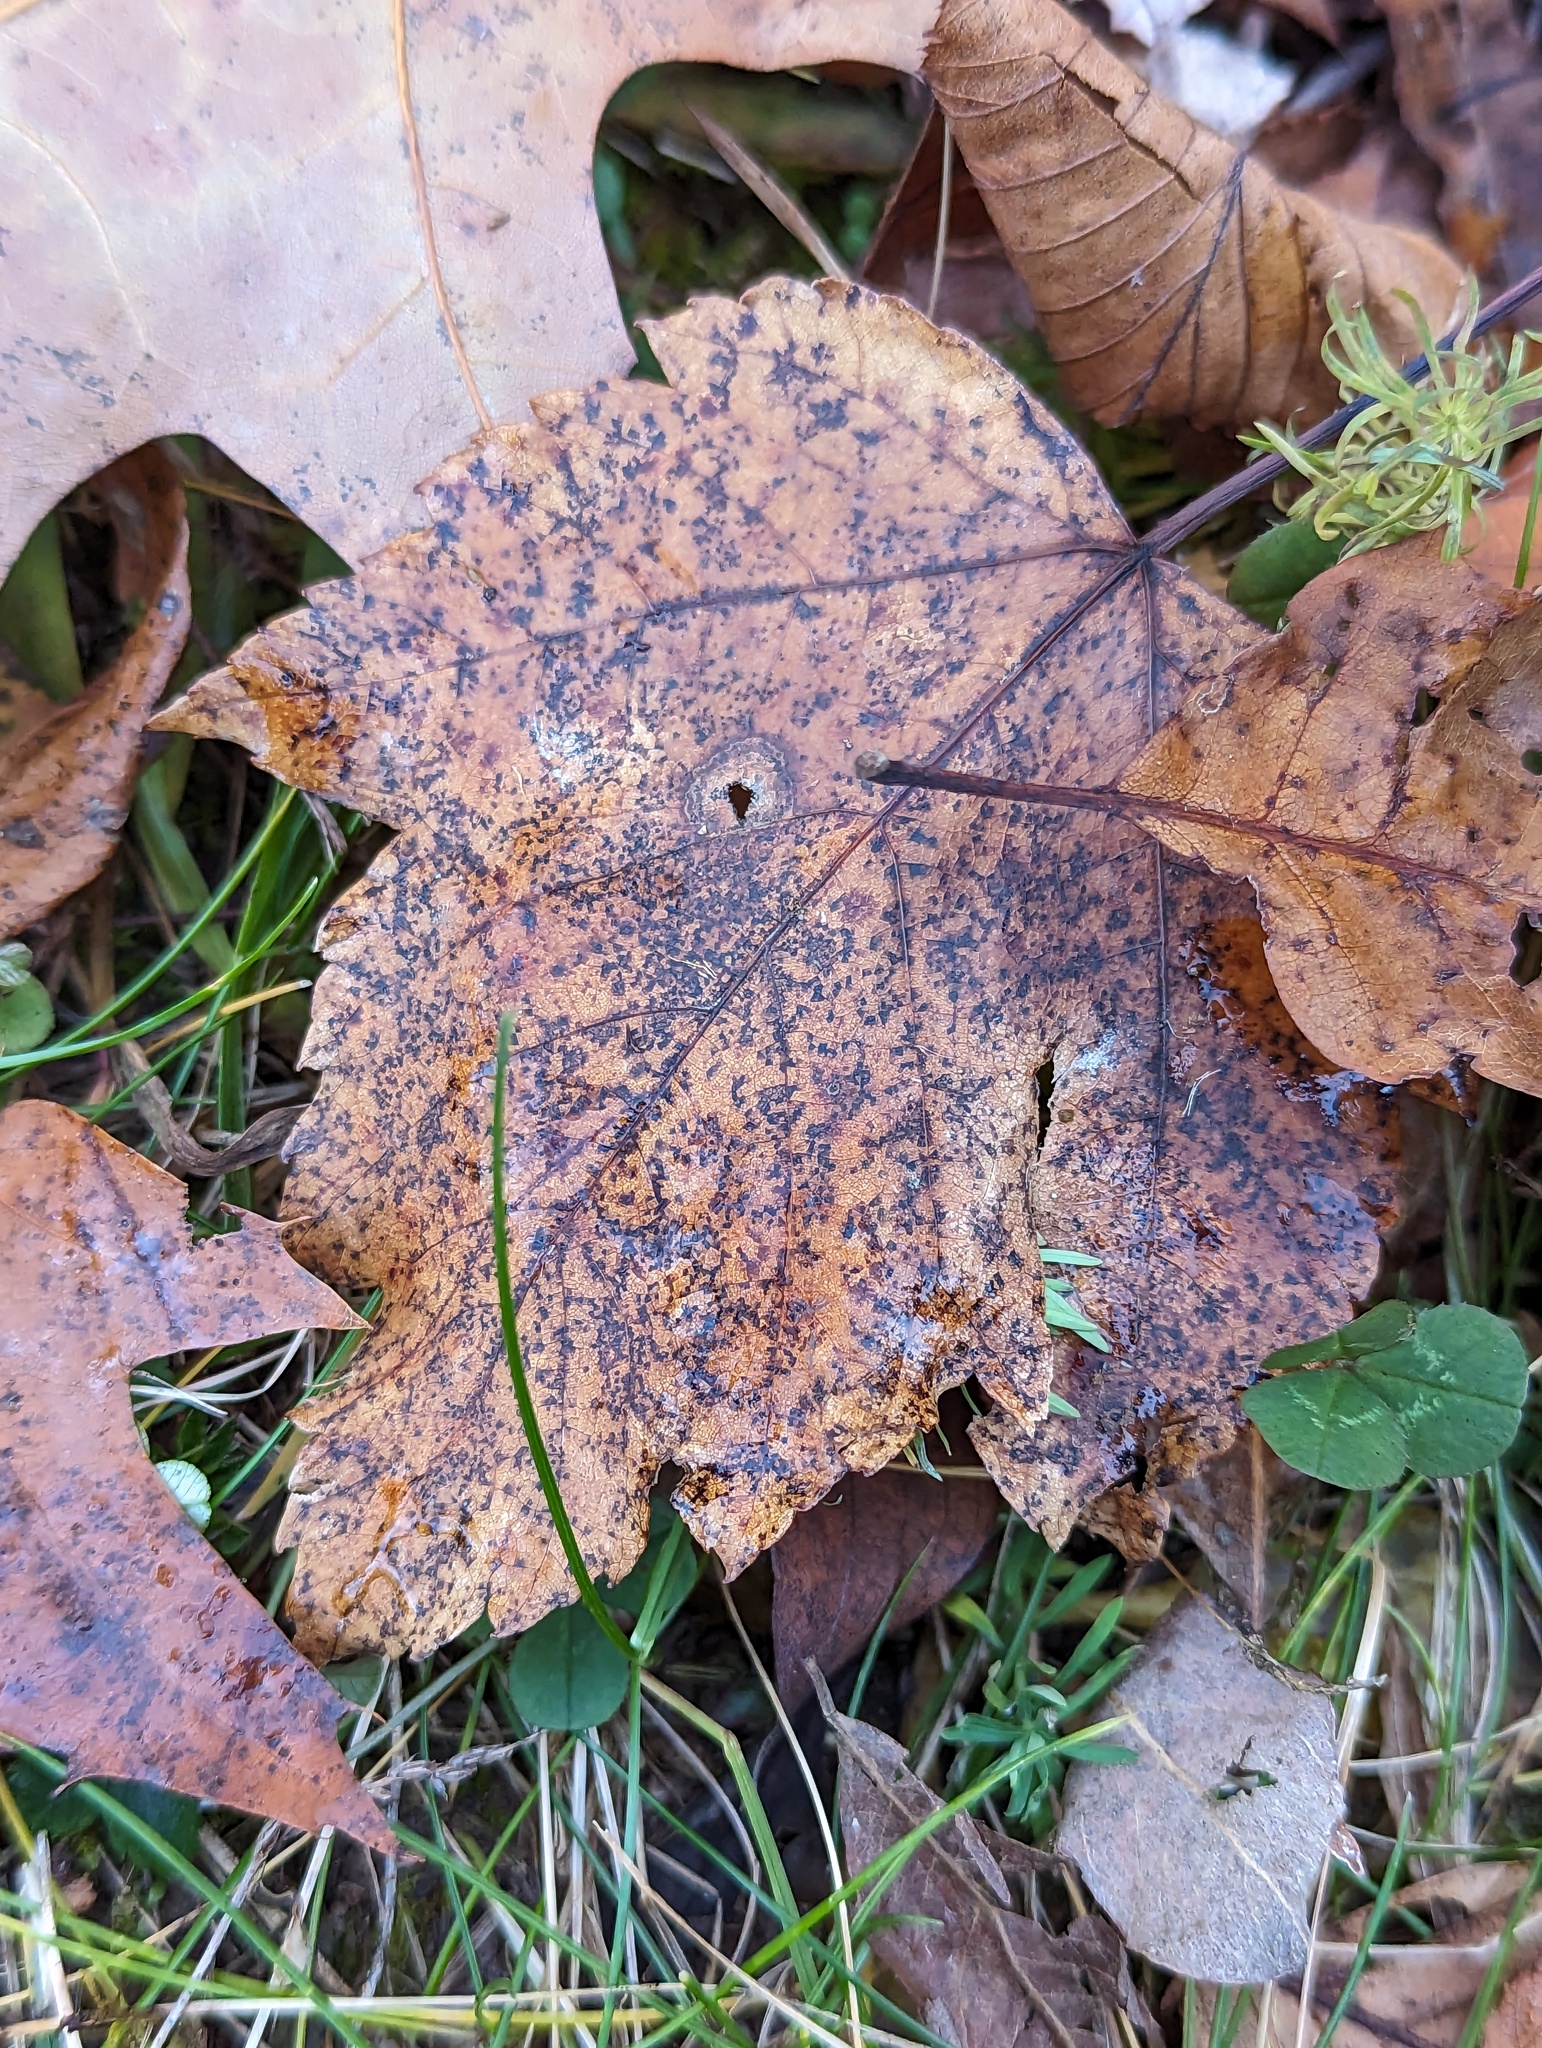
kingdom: Plantae
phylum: Tracheophyta
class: Magnoliopsida
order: Sapindales
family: Sapindaceae
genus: Acer
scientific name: Acer rubrum
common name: Red maple
